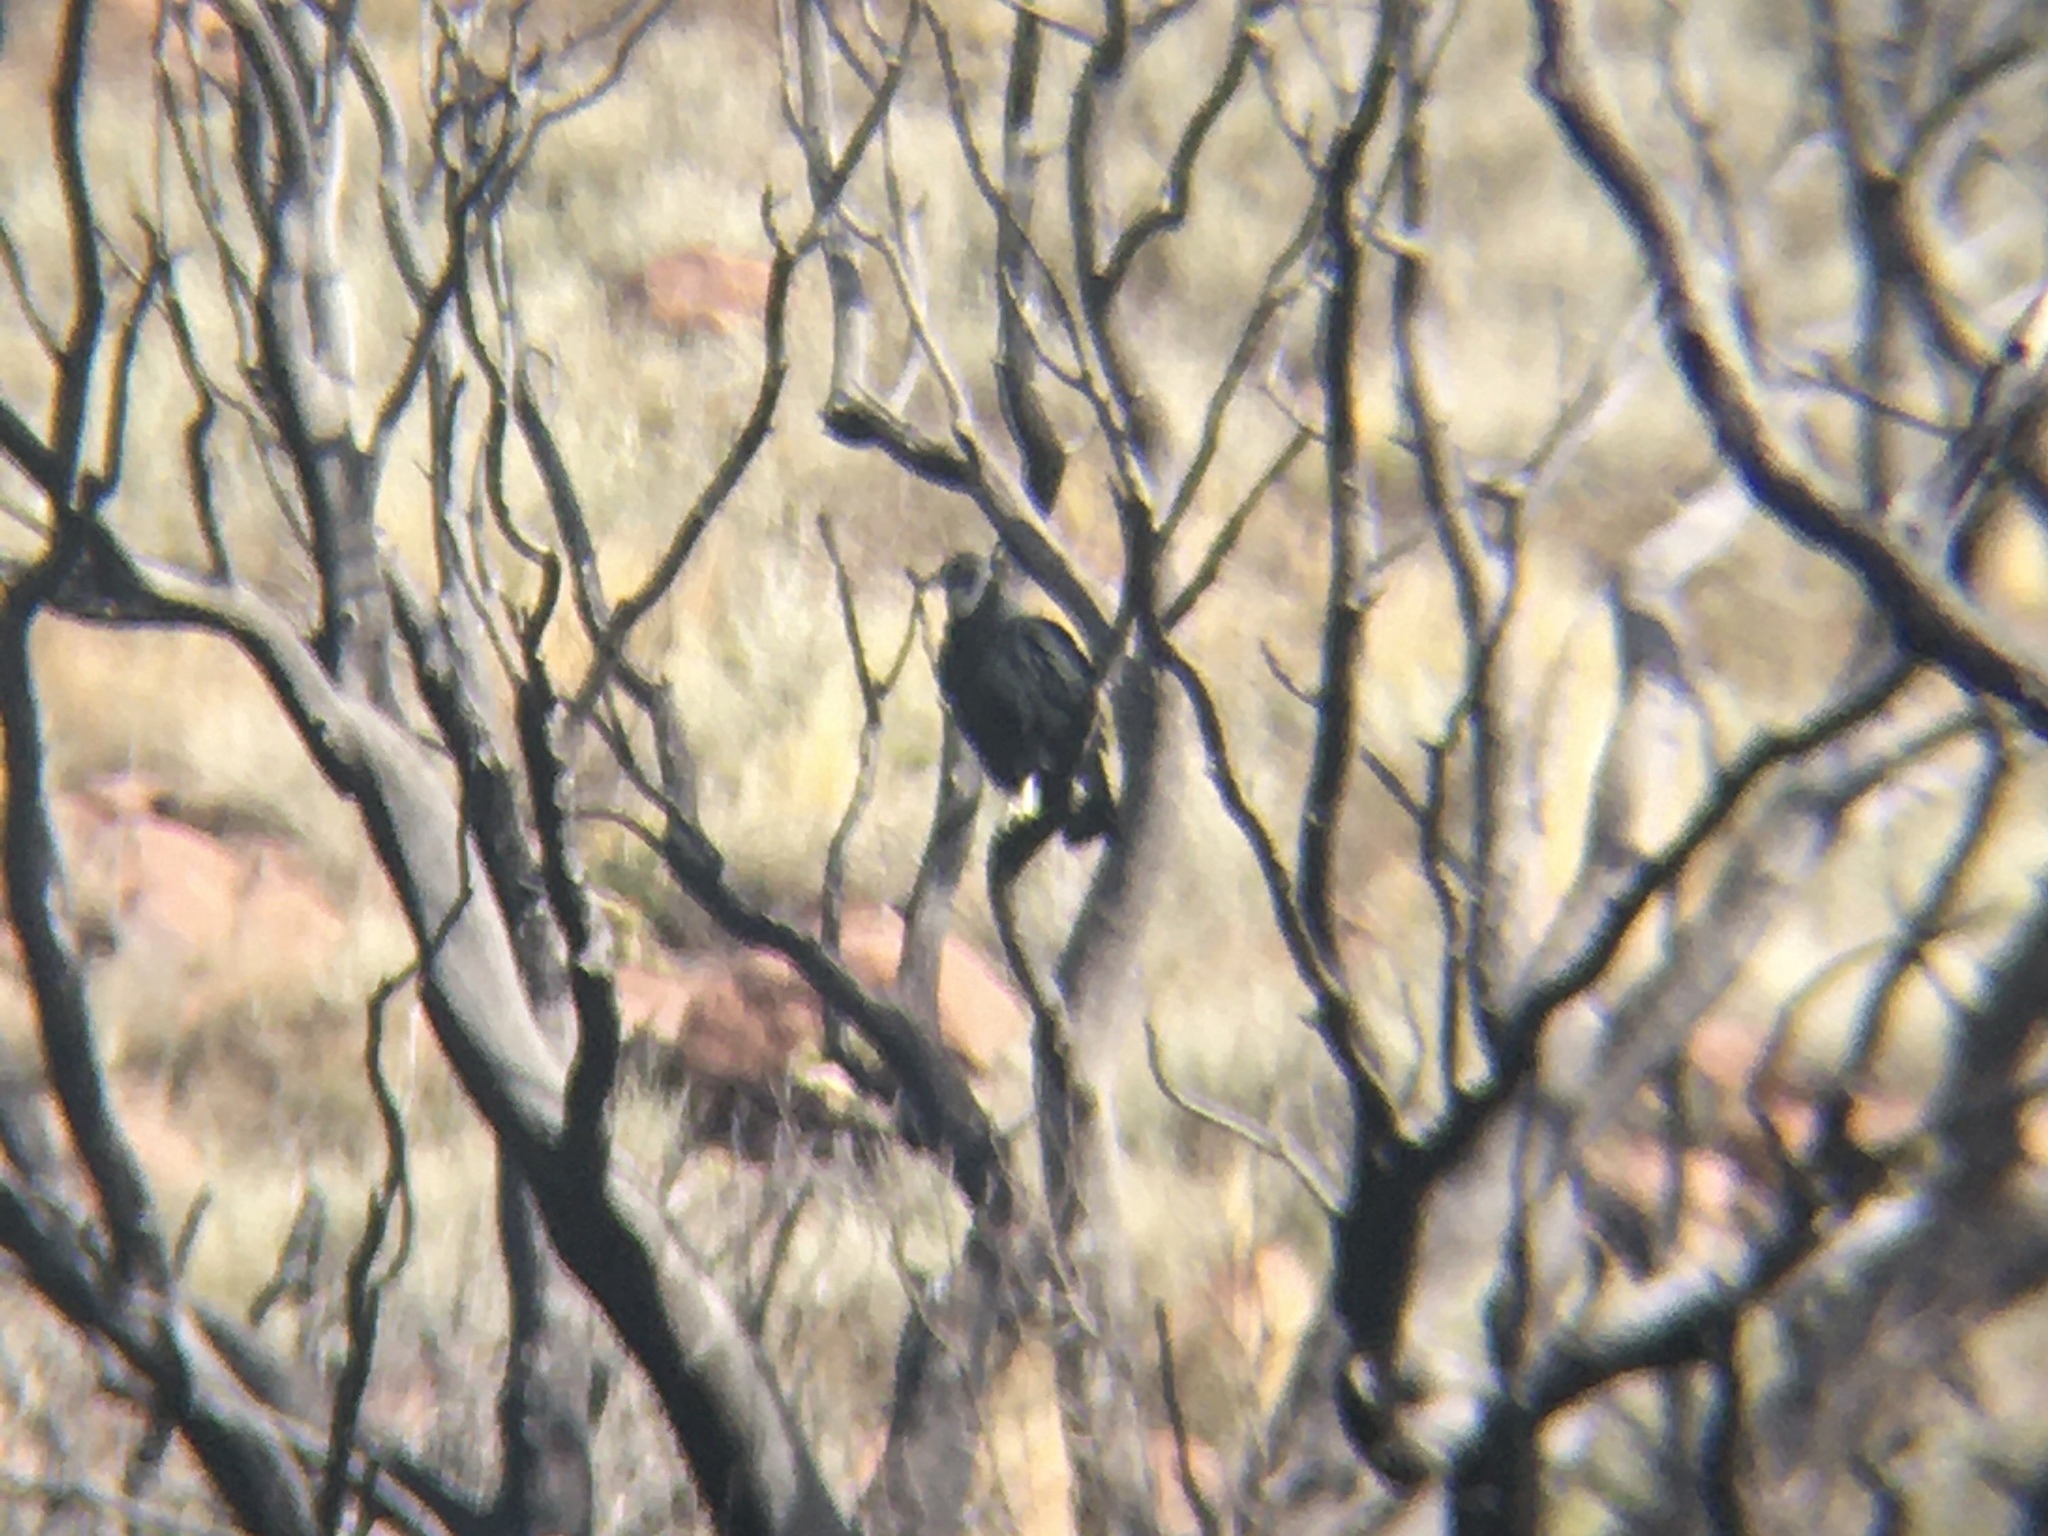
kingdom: Animalia
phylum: Chordata
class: Aves
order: Accipitriformes
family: Cathartidae
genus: Coragyps
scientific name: Coragyps atratus
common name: Black vulture
